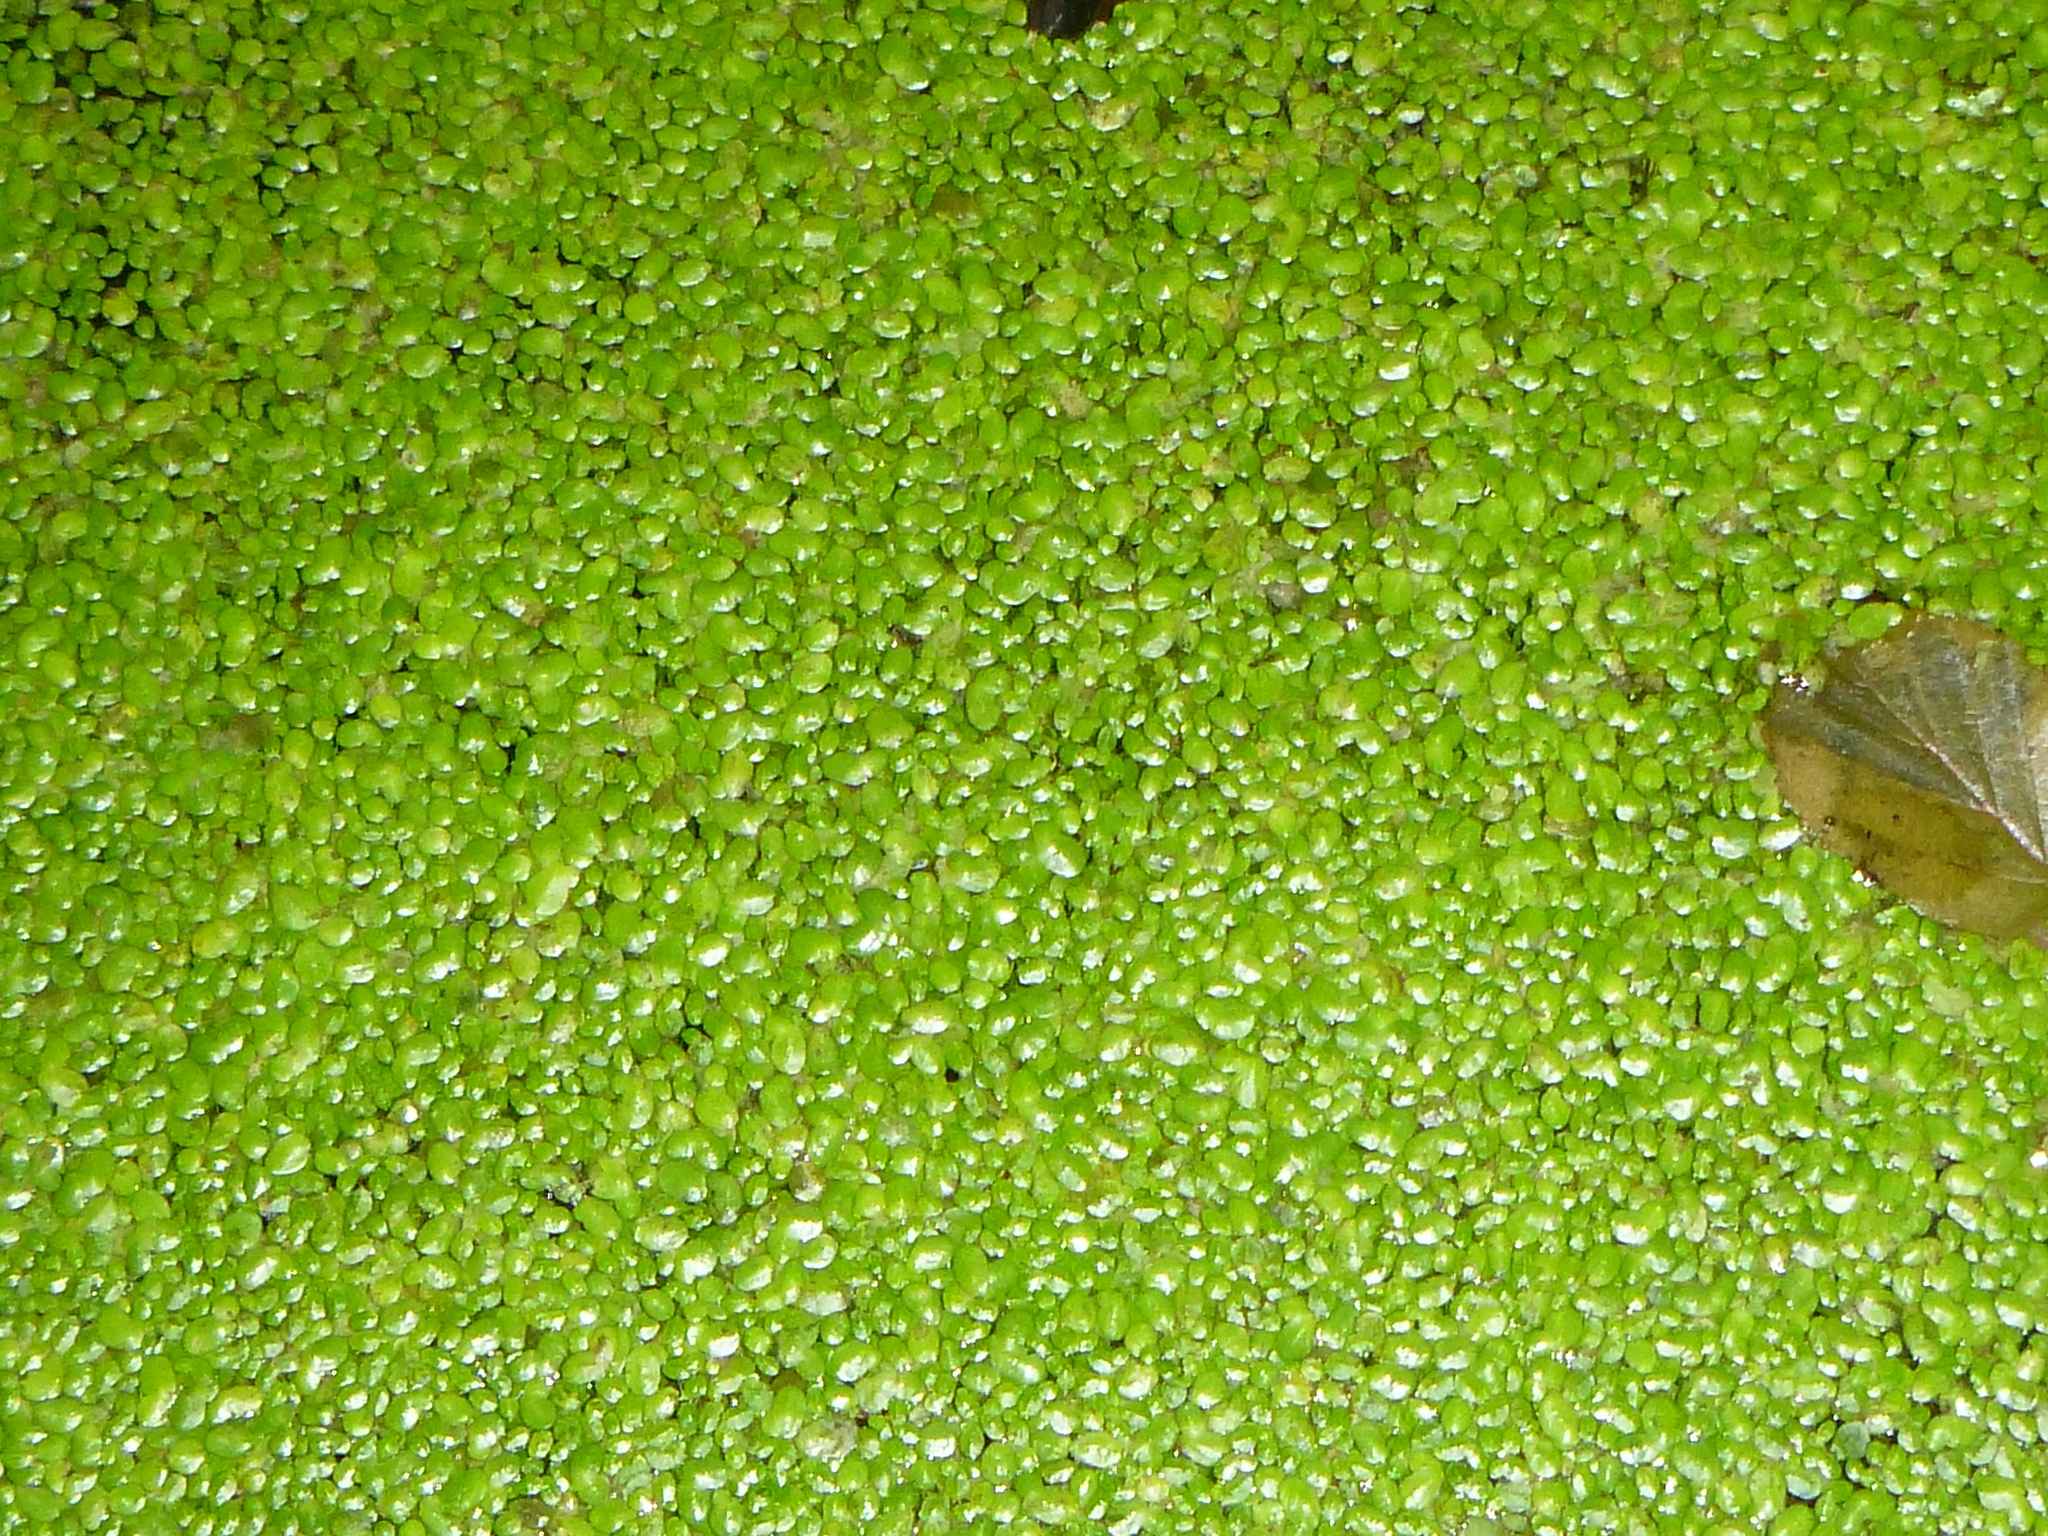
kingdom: Plantae
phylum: Tracheophyta
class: Liliopsida
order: Alismatales
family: Araceae
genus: Lemna
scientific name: Lemna minor
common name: Common duckweed
